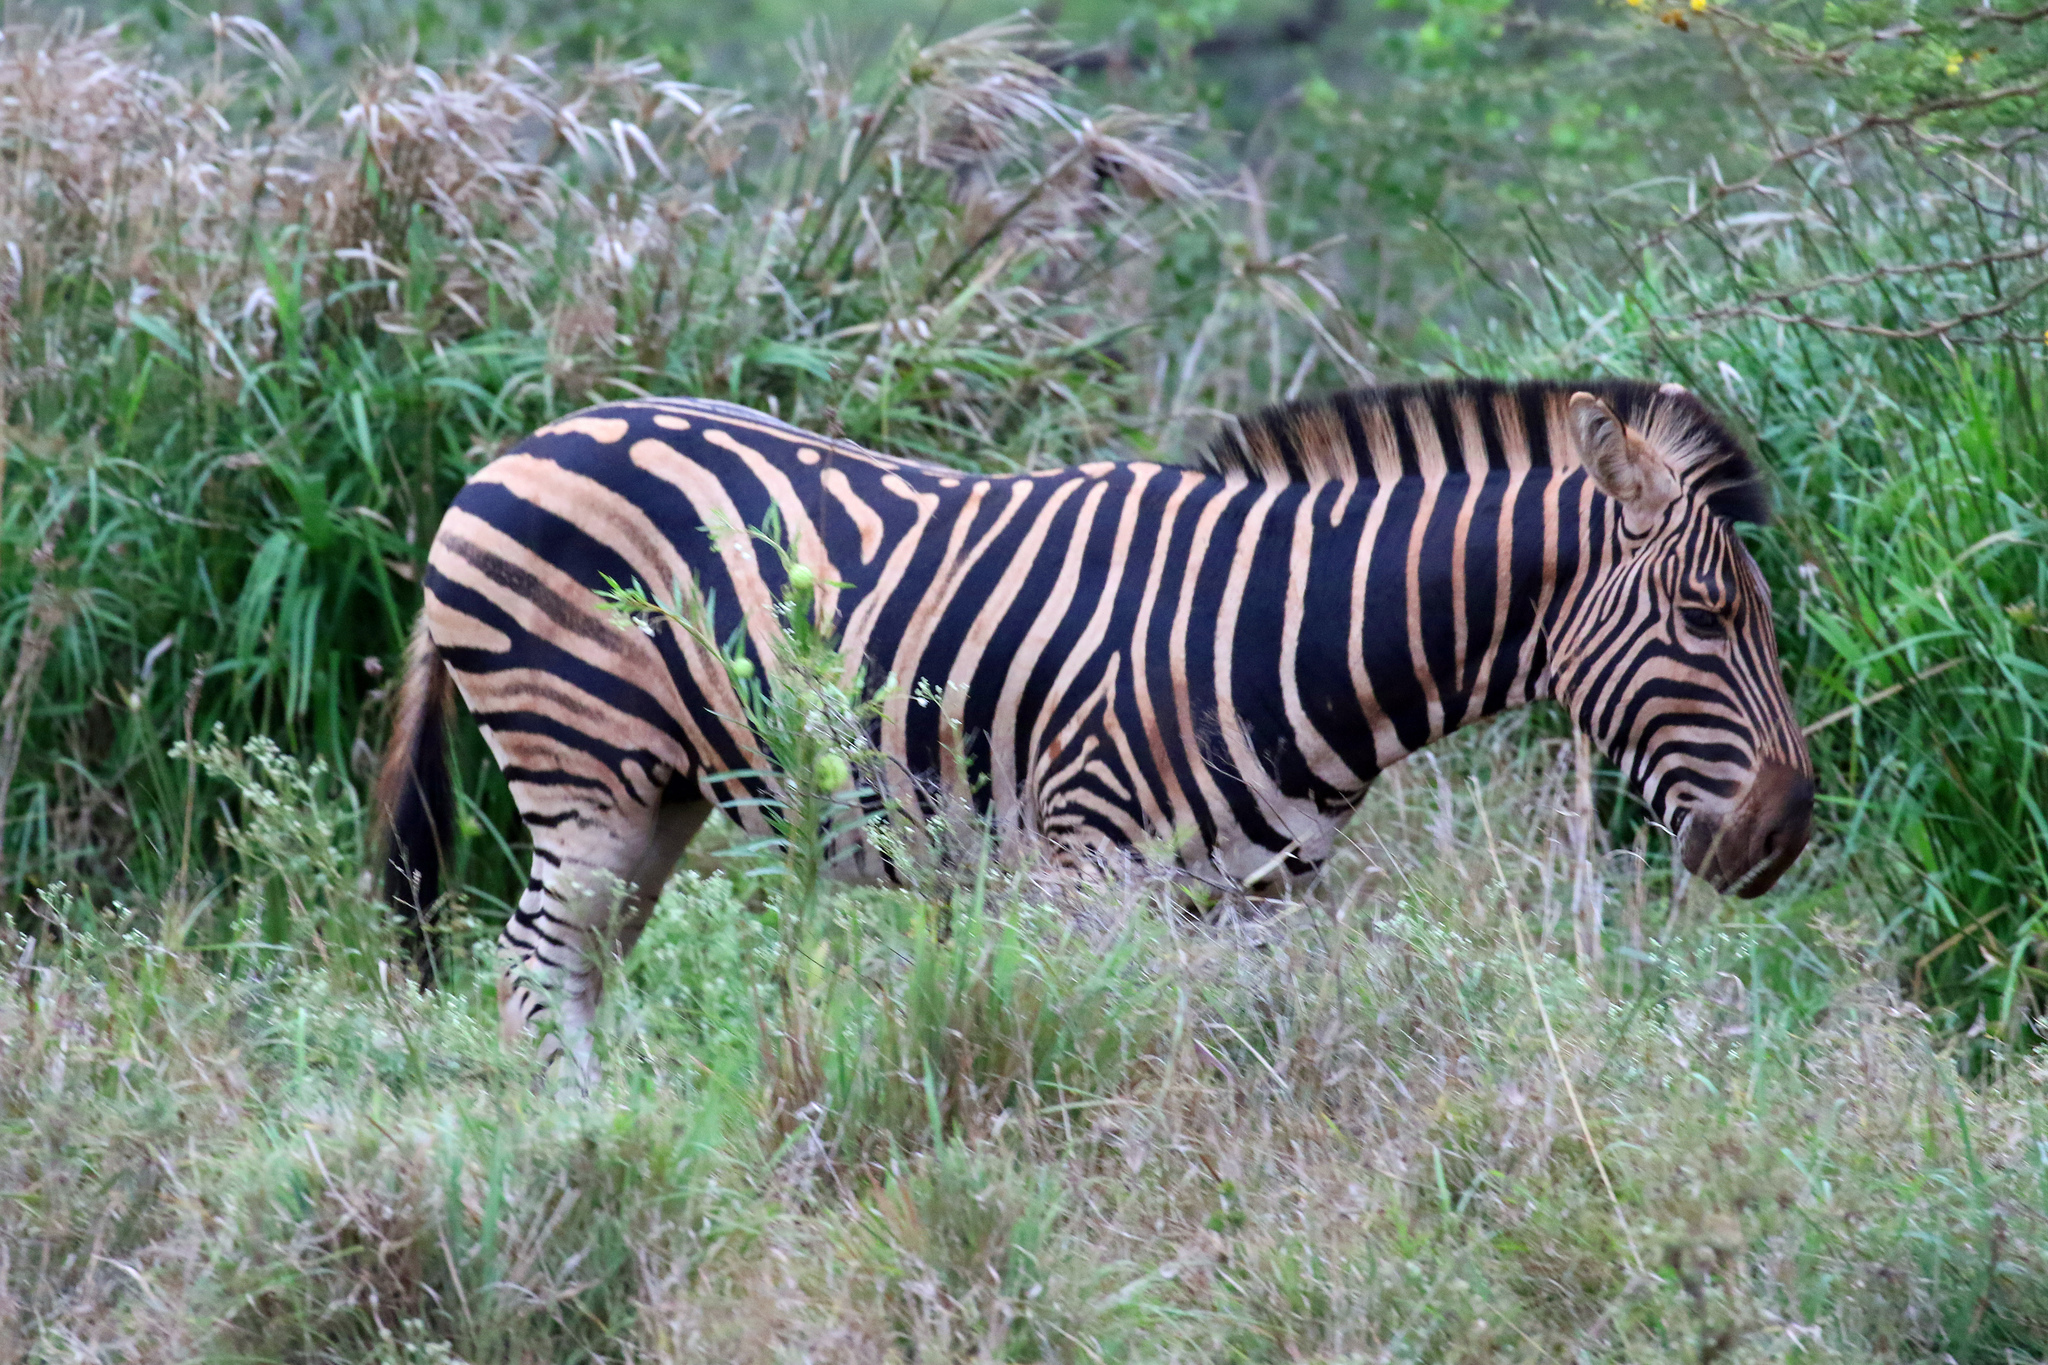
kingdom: Animalia
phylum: Chordata
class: Mammalia
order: Perissodactyla
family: Equidae
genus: Equus
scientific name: Equus quagga
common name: Plains zebra
